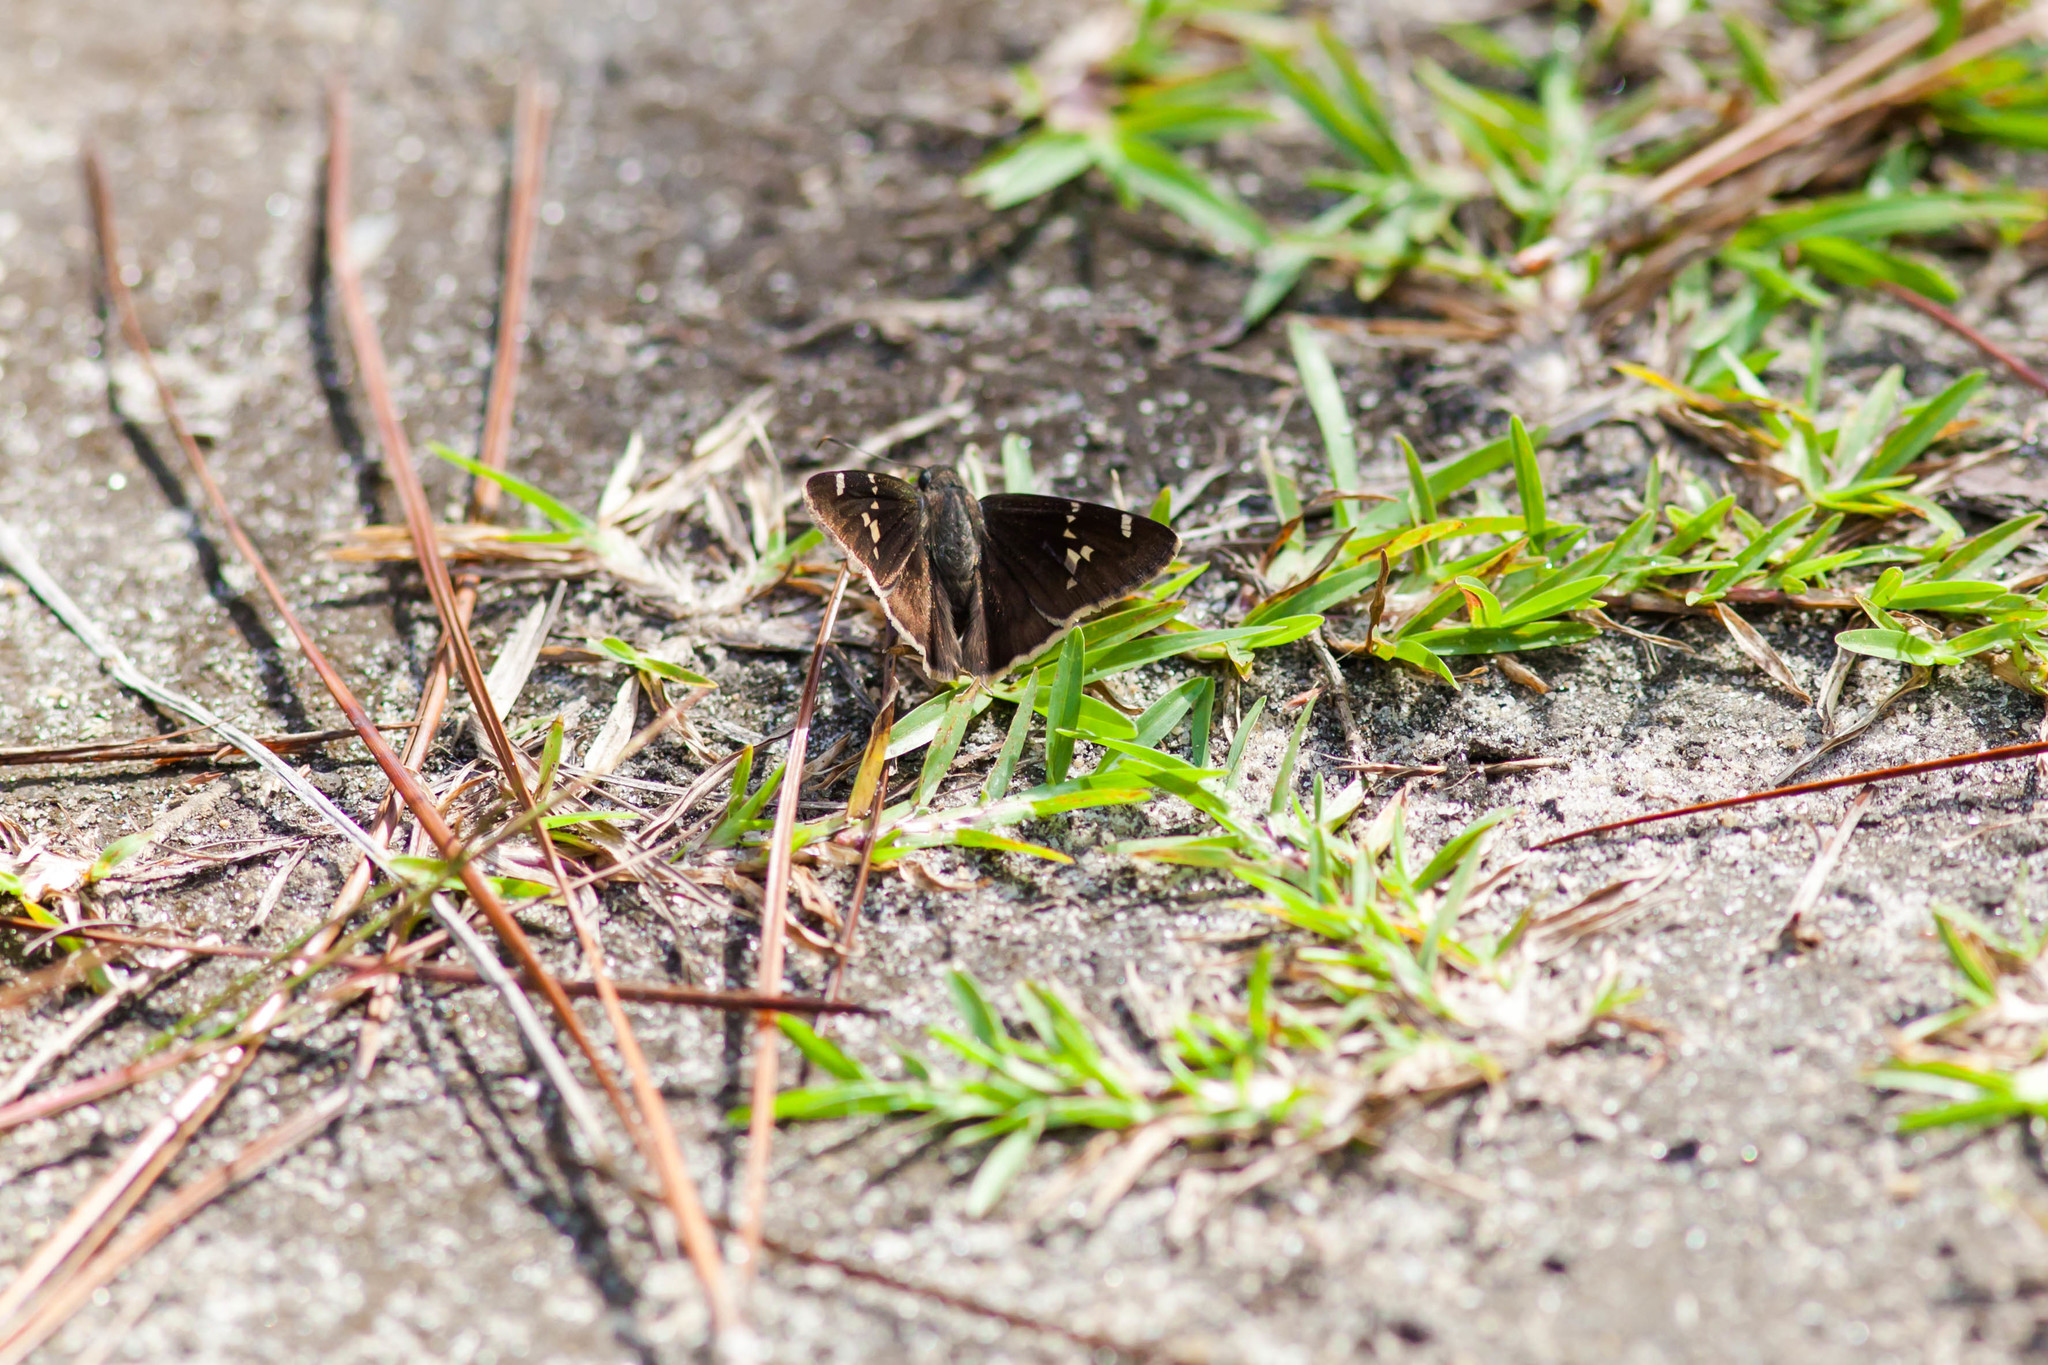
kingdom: Animalia
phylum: Arthropoda
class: Insecta
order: Lepidoptera
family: Hesperiidae
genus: Thorybes
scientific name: Thorybes daunus
